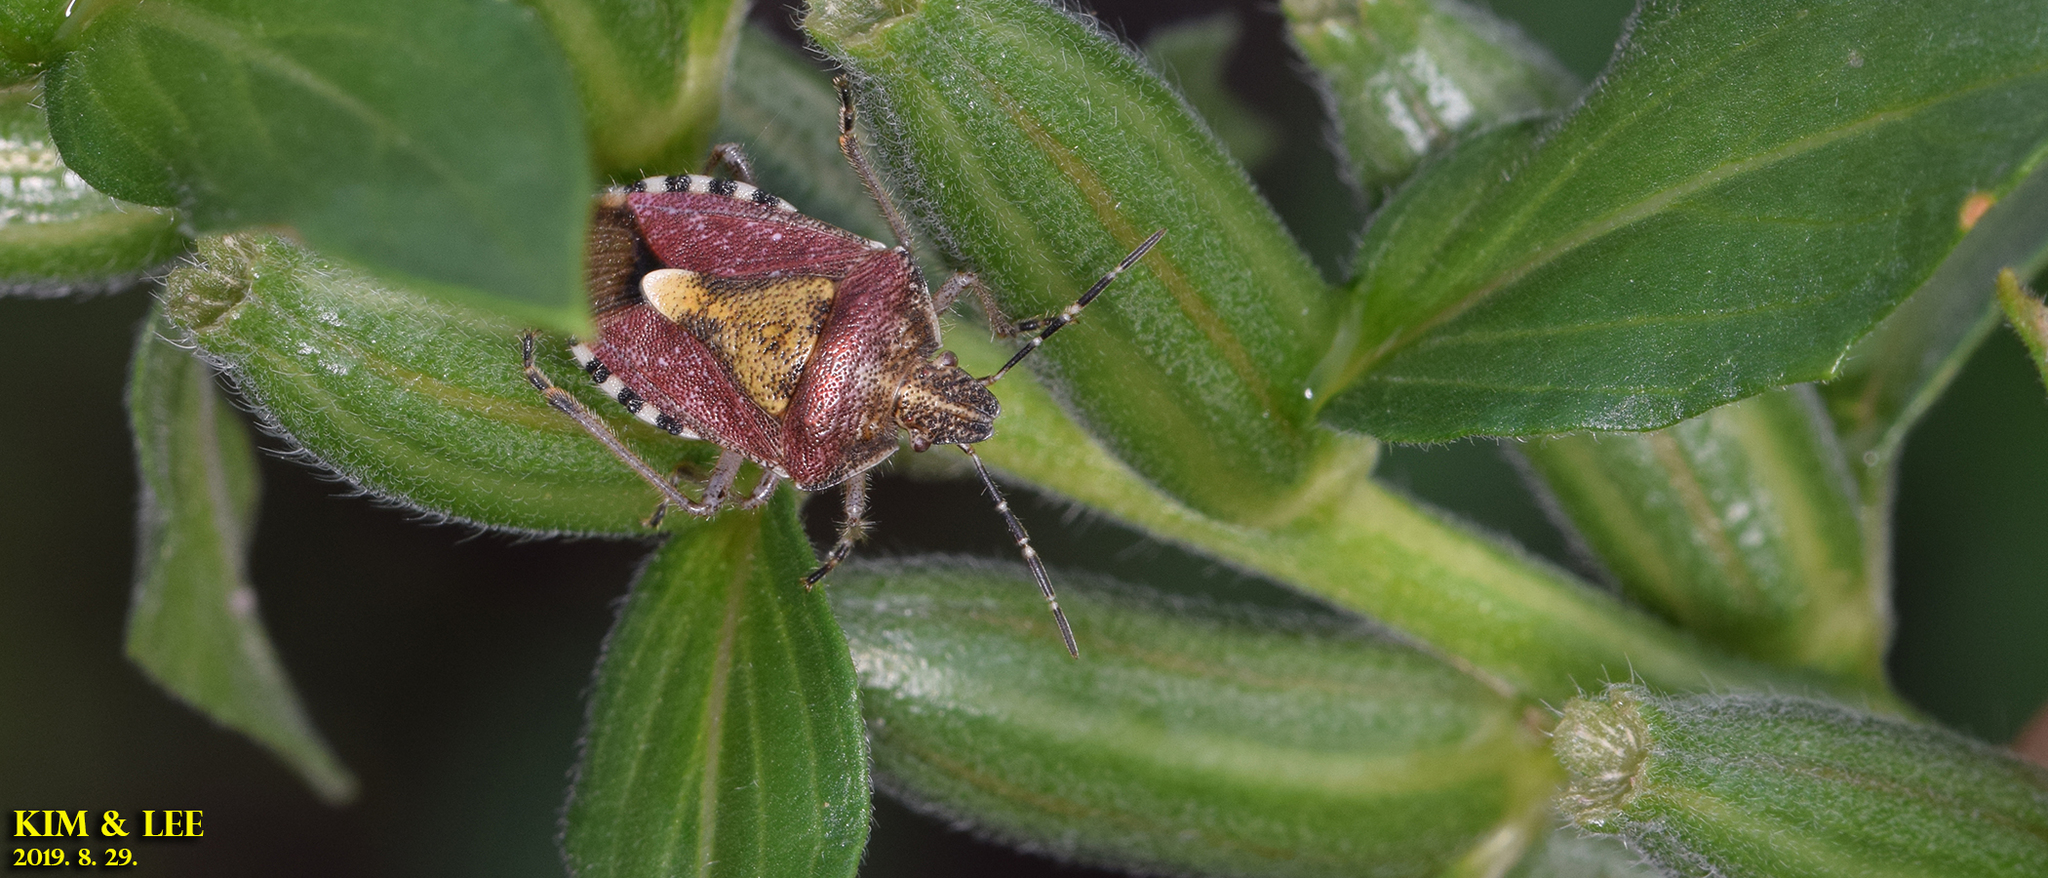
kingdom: Animalia
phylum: Arthropoda
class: Insecta
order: Hemiptera
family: Pentatomidae
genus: Dolycoris
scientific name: Dolycoris baccarum
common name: Sloe bug
